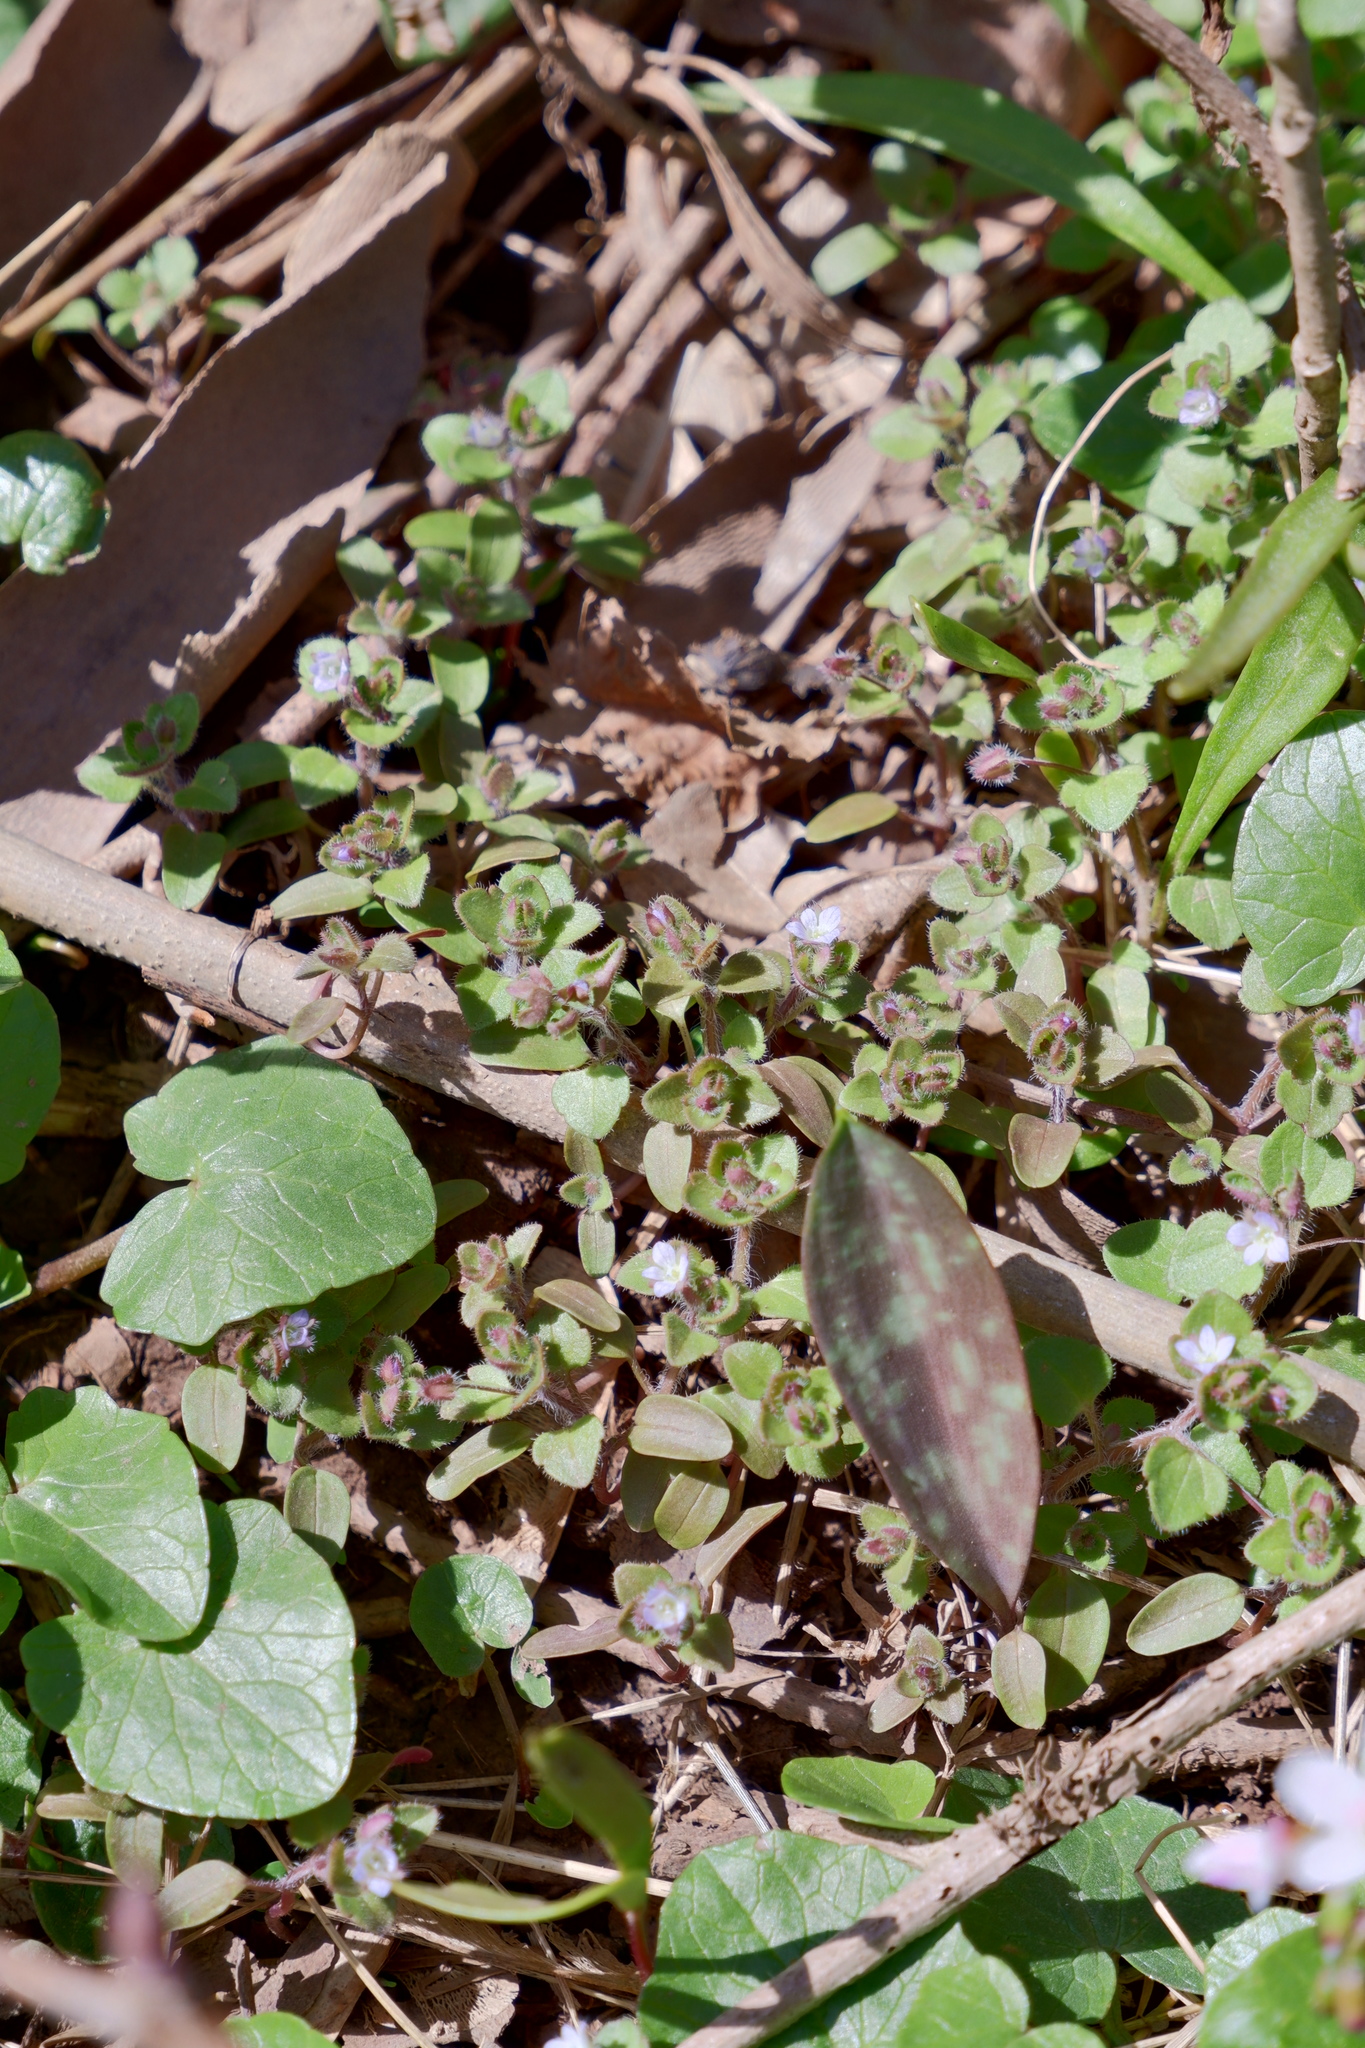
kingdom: Plantae
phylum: Tracheophyta
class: Magnoliopsida
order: Lamiales
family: Plantaginaceae
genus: Veronica
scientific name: Veronica sublobata
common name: False ivy-leaved speedwell
